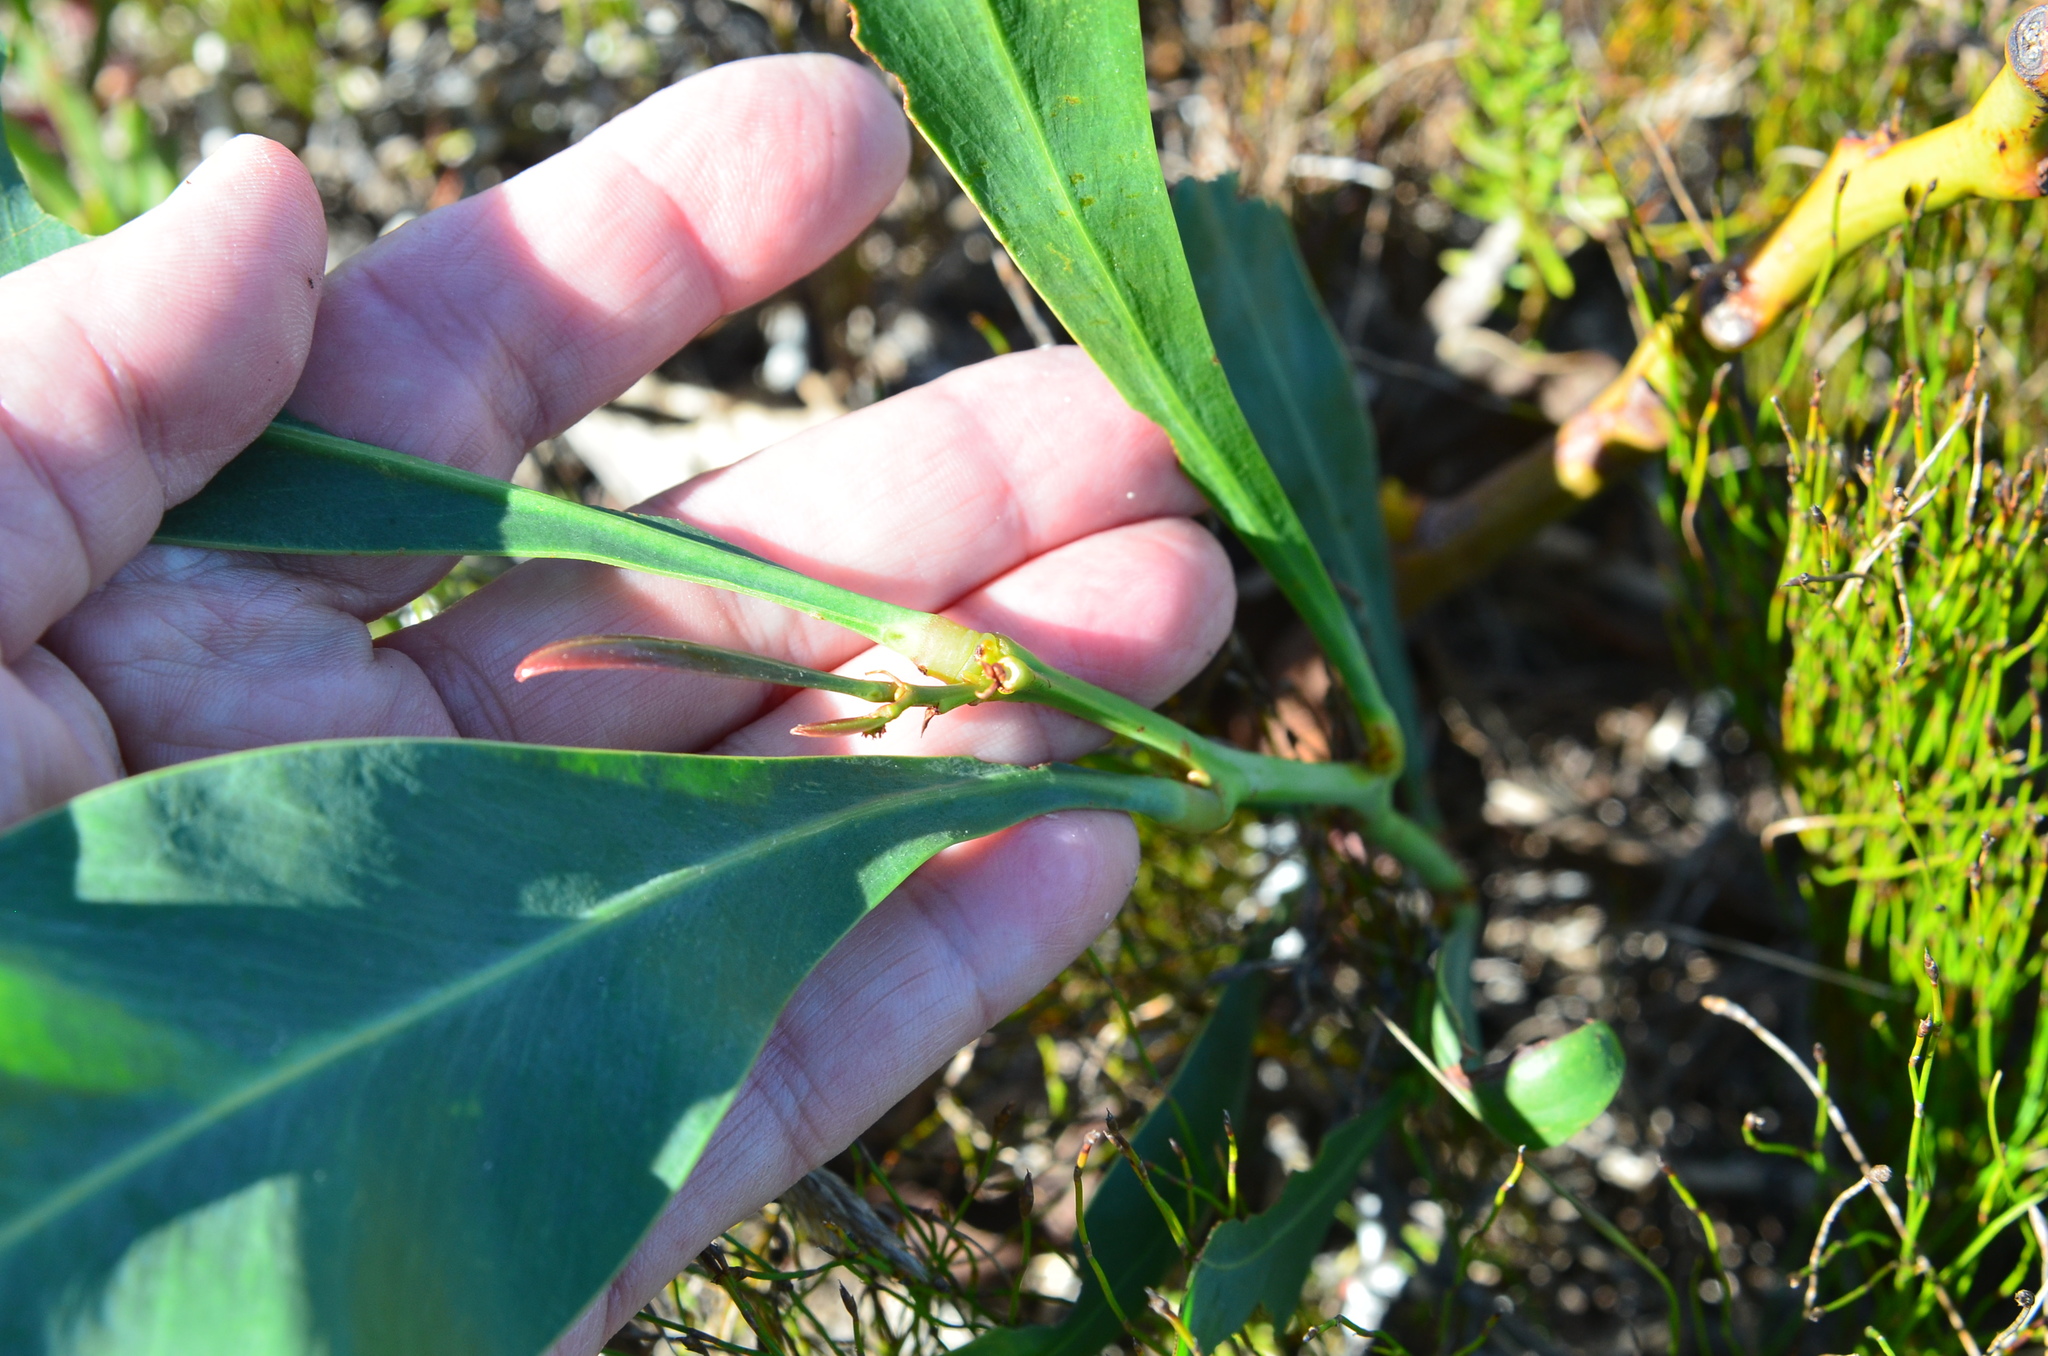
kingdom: Plantae
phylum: Tracheophyta
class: Magnoliopsida
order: Fabales
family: Fabaceae
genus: Acacia
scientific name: Acacia saligna
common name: Orange wattle
